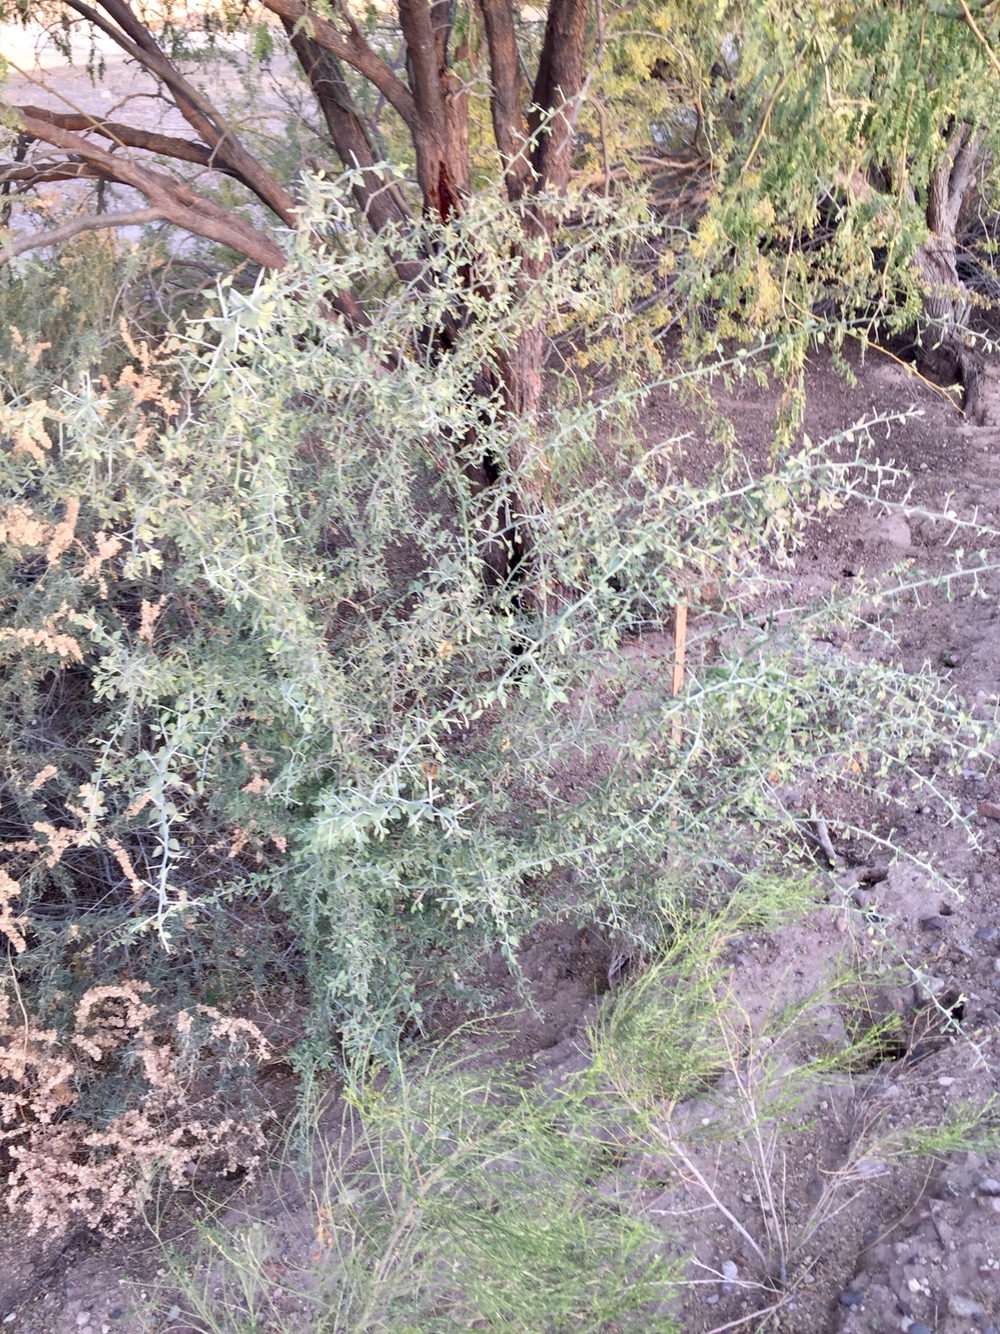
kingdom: Plantae
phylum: Tracheophyta
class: Magnoliopsida
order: Rosales
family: Rhamnaceae
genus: Sarcomphalus
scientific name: Sarcomphalus obtusifolius
